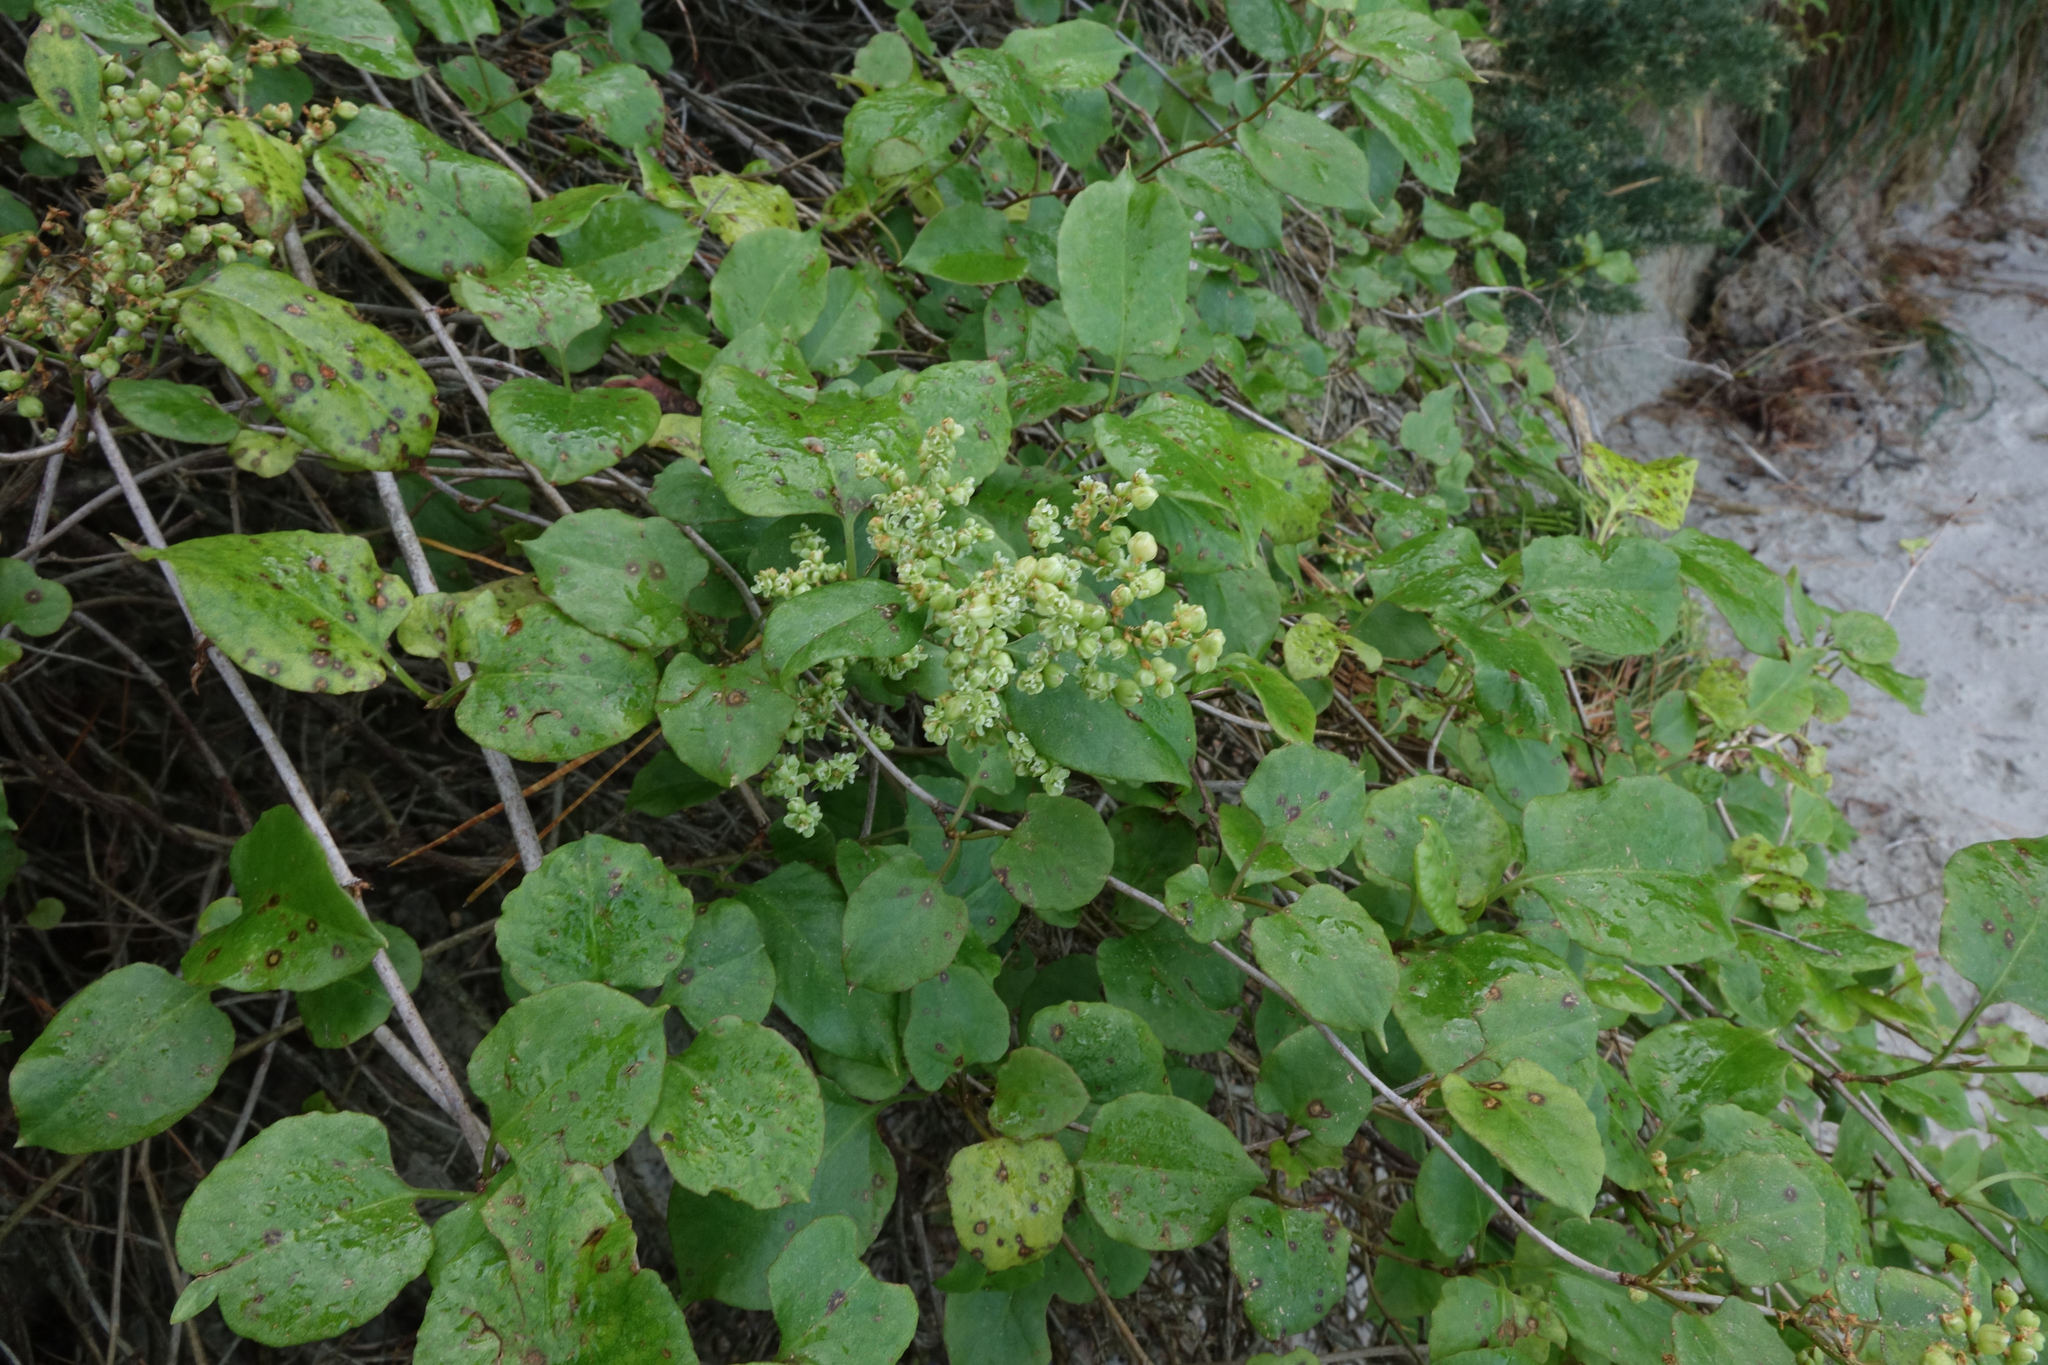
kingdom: Plantae
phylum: Tracheophyta
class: Magnoliopsida
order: Caryophyllales
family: Polygonaceae
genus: Muehlenbeckia
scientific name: Muehlenbeckia australis
